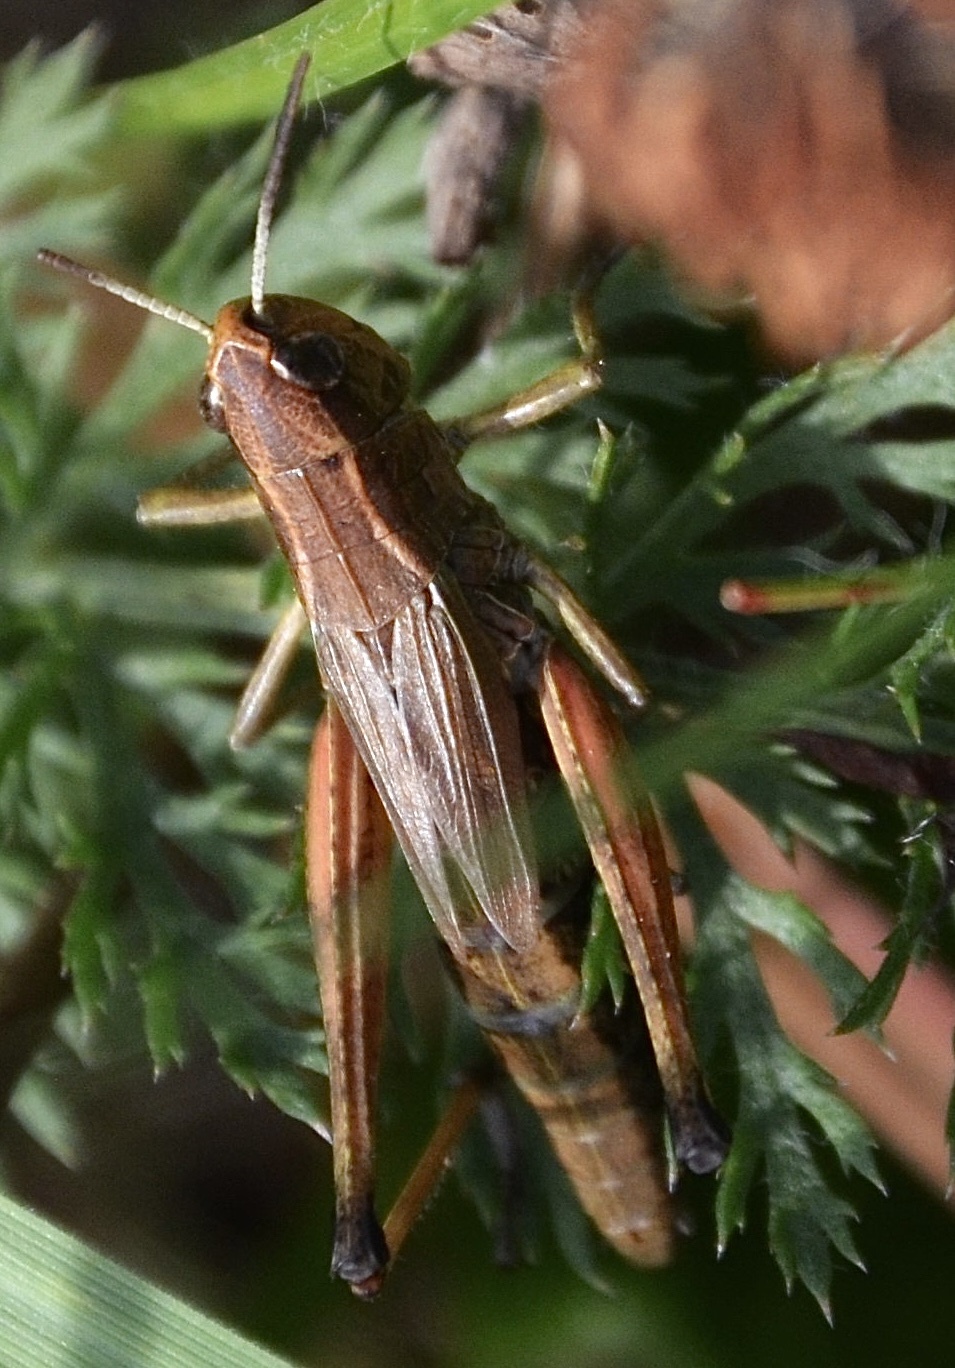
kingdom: Animalia
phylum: Arthropoda
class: Insecta
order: Orthoptera
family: Acrididae
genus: Pseudochorthippus
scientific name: Pseudochorthippus parallelus
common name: Meadow grasshopper
